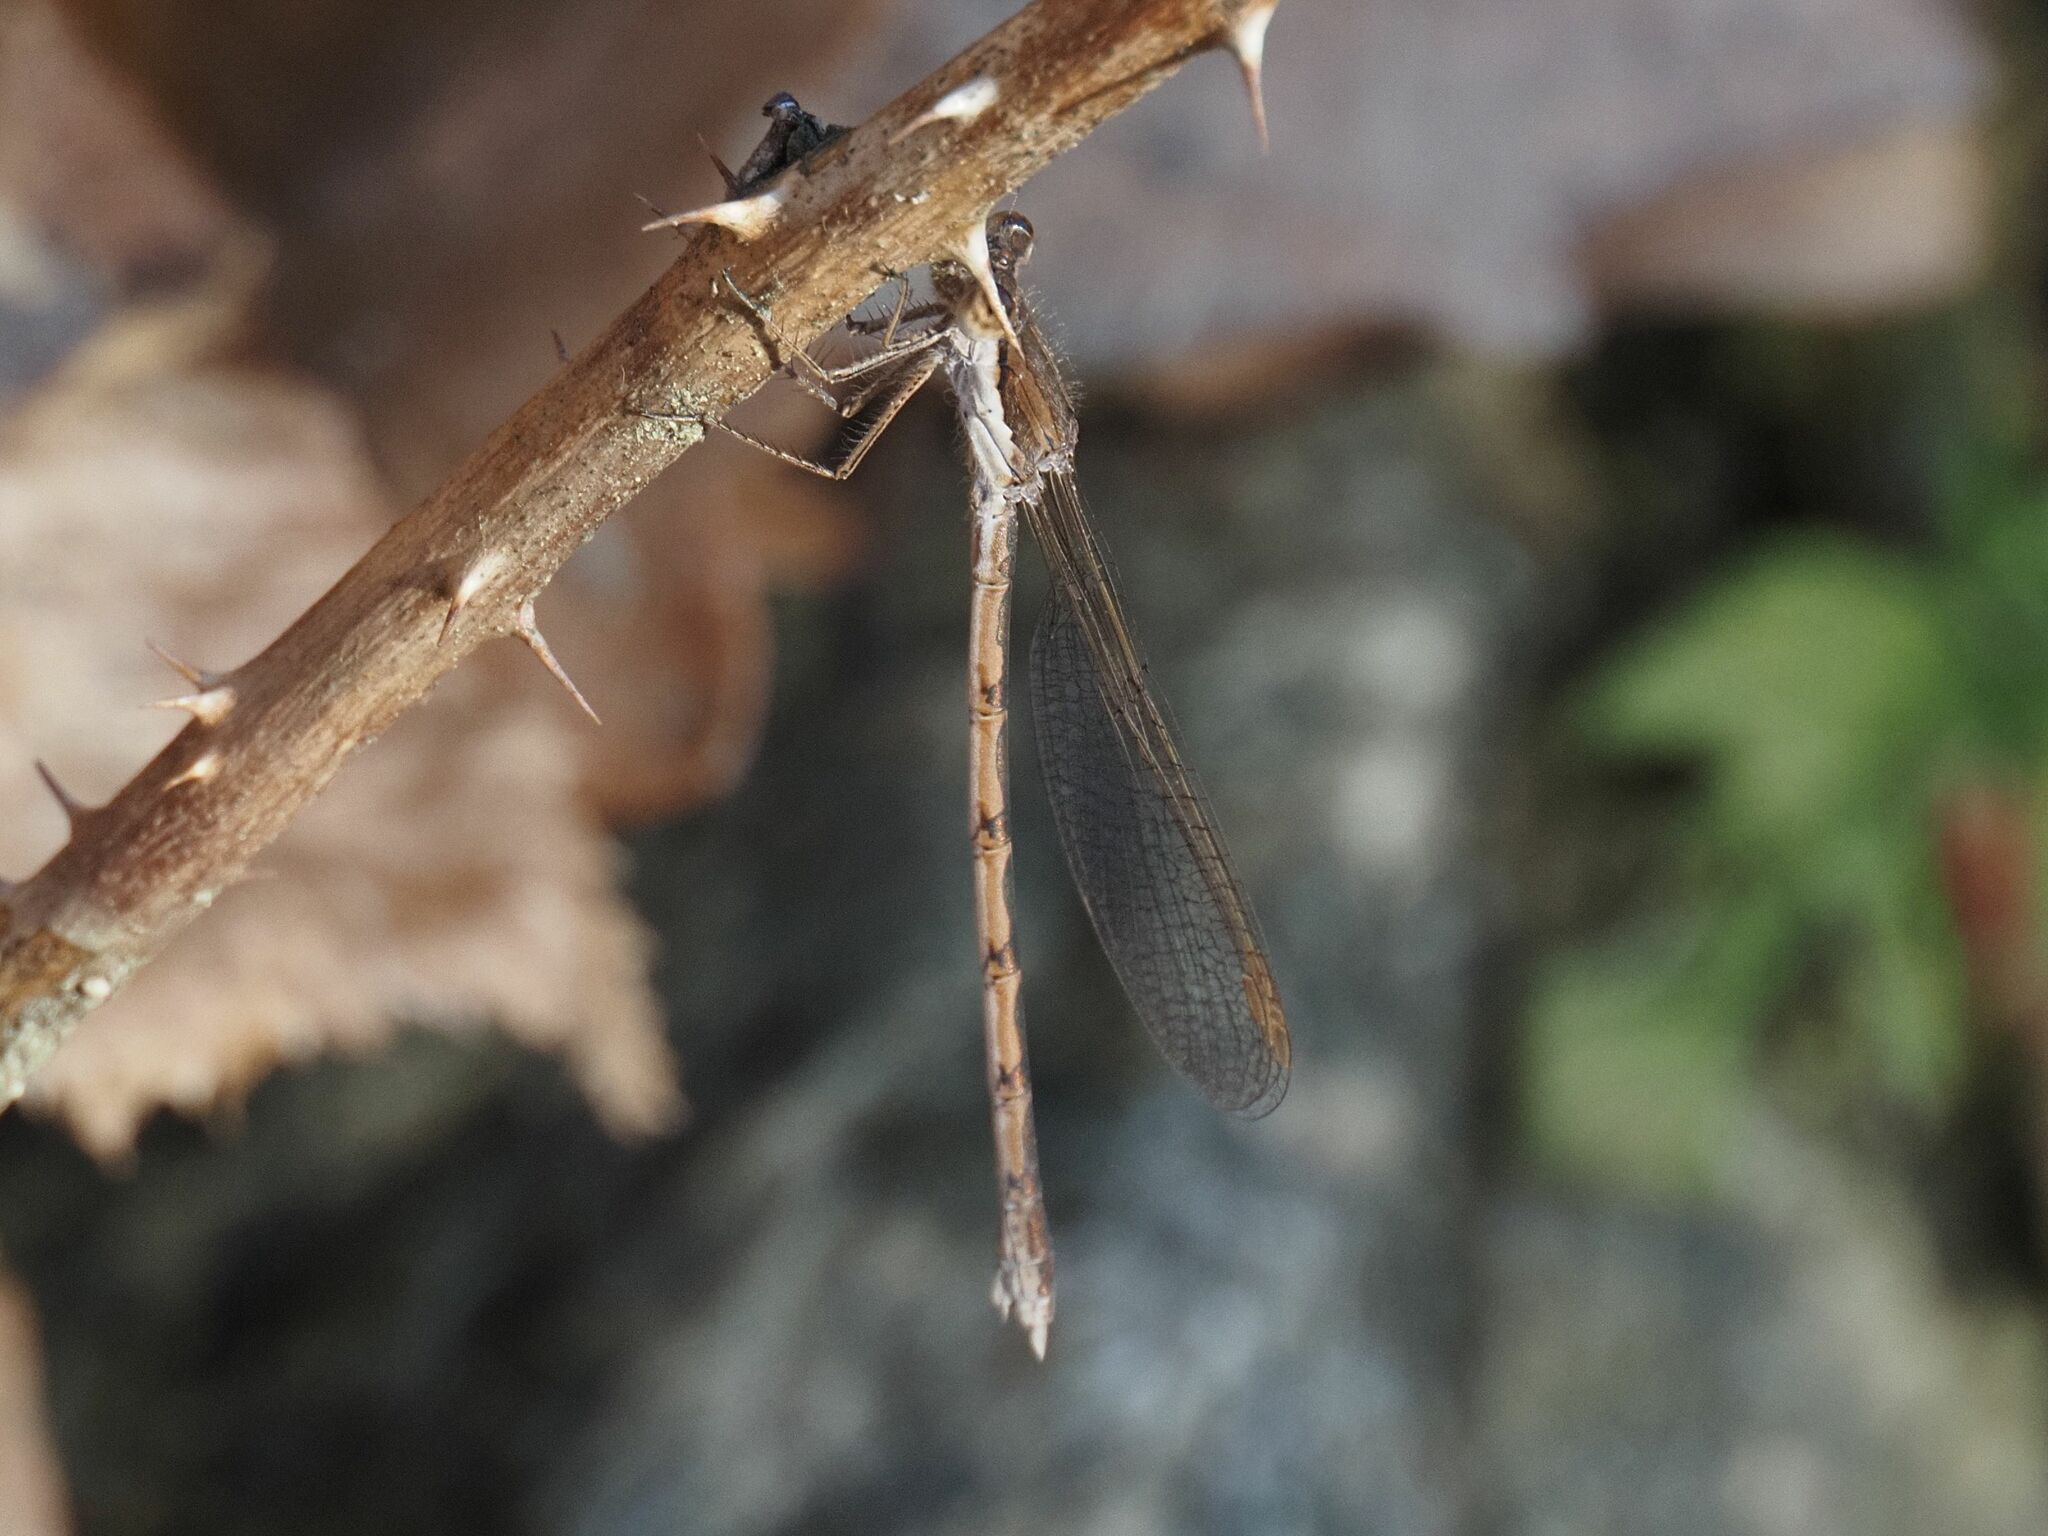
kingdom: Animalia
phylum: Arthropoda
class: Insecta
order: Odonata
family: Lestidae
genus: Sympecma
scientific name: Sympecma fusca
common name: Common winter damsel
